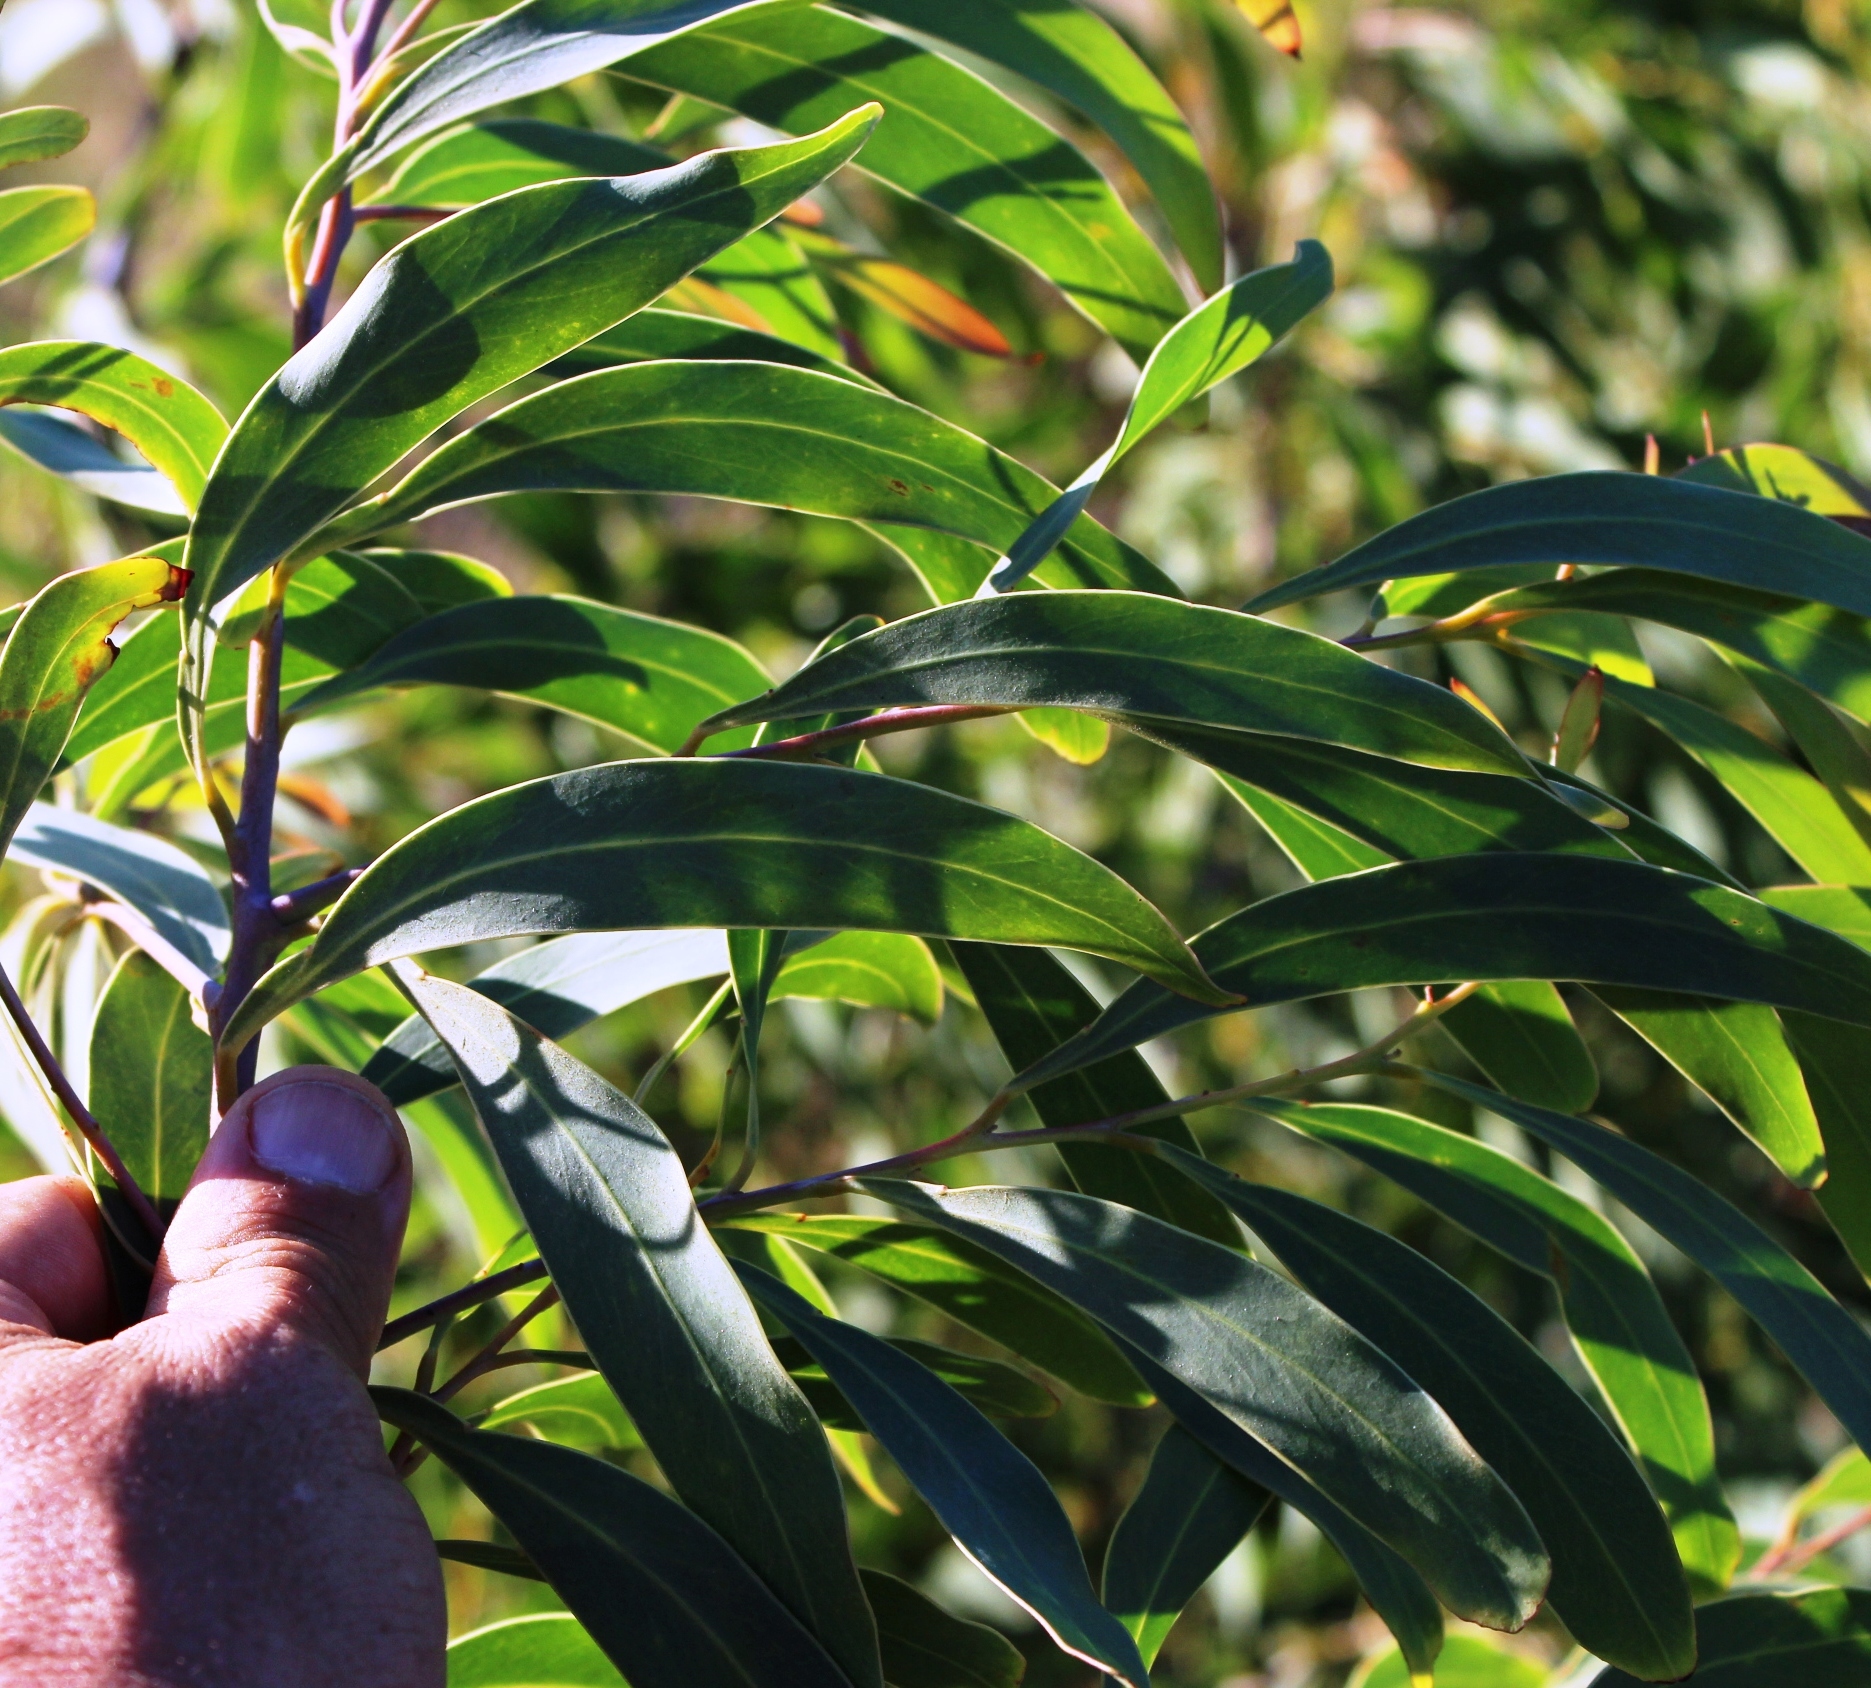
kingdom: Plantae
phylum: Tracheophyta
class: Magnoliopsida
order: Fabales
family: Fabaceae
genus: Acacia
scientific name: Acacia falciformis
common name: Tanning wattle
